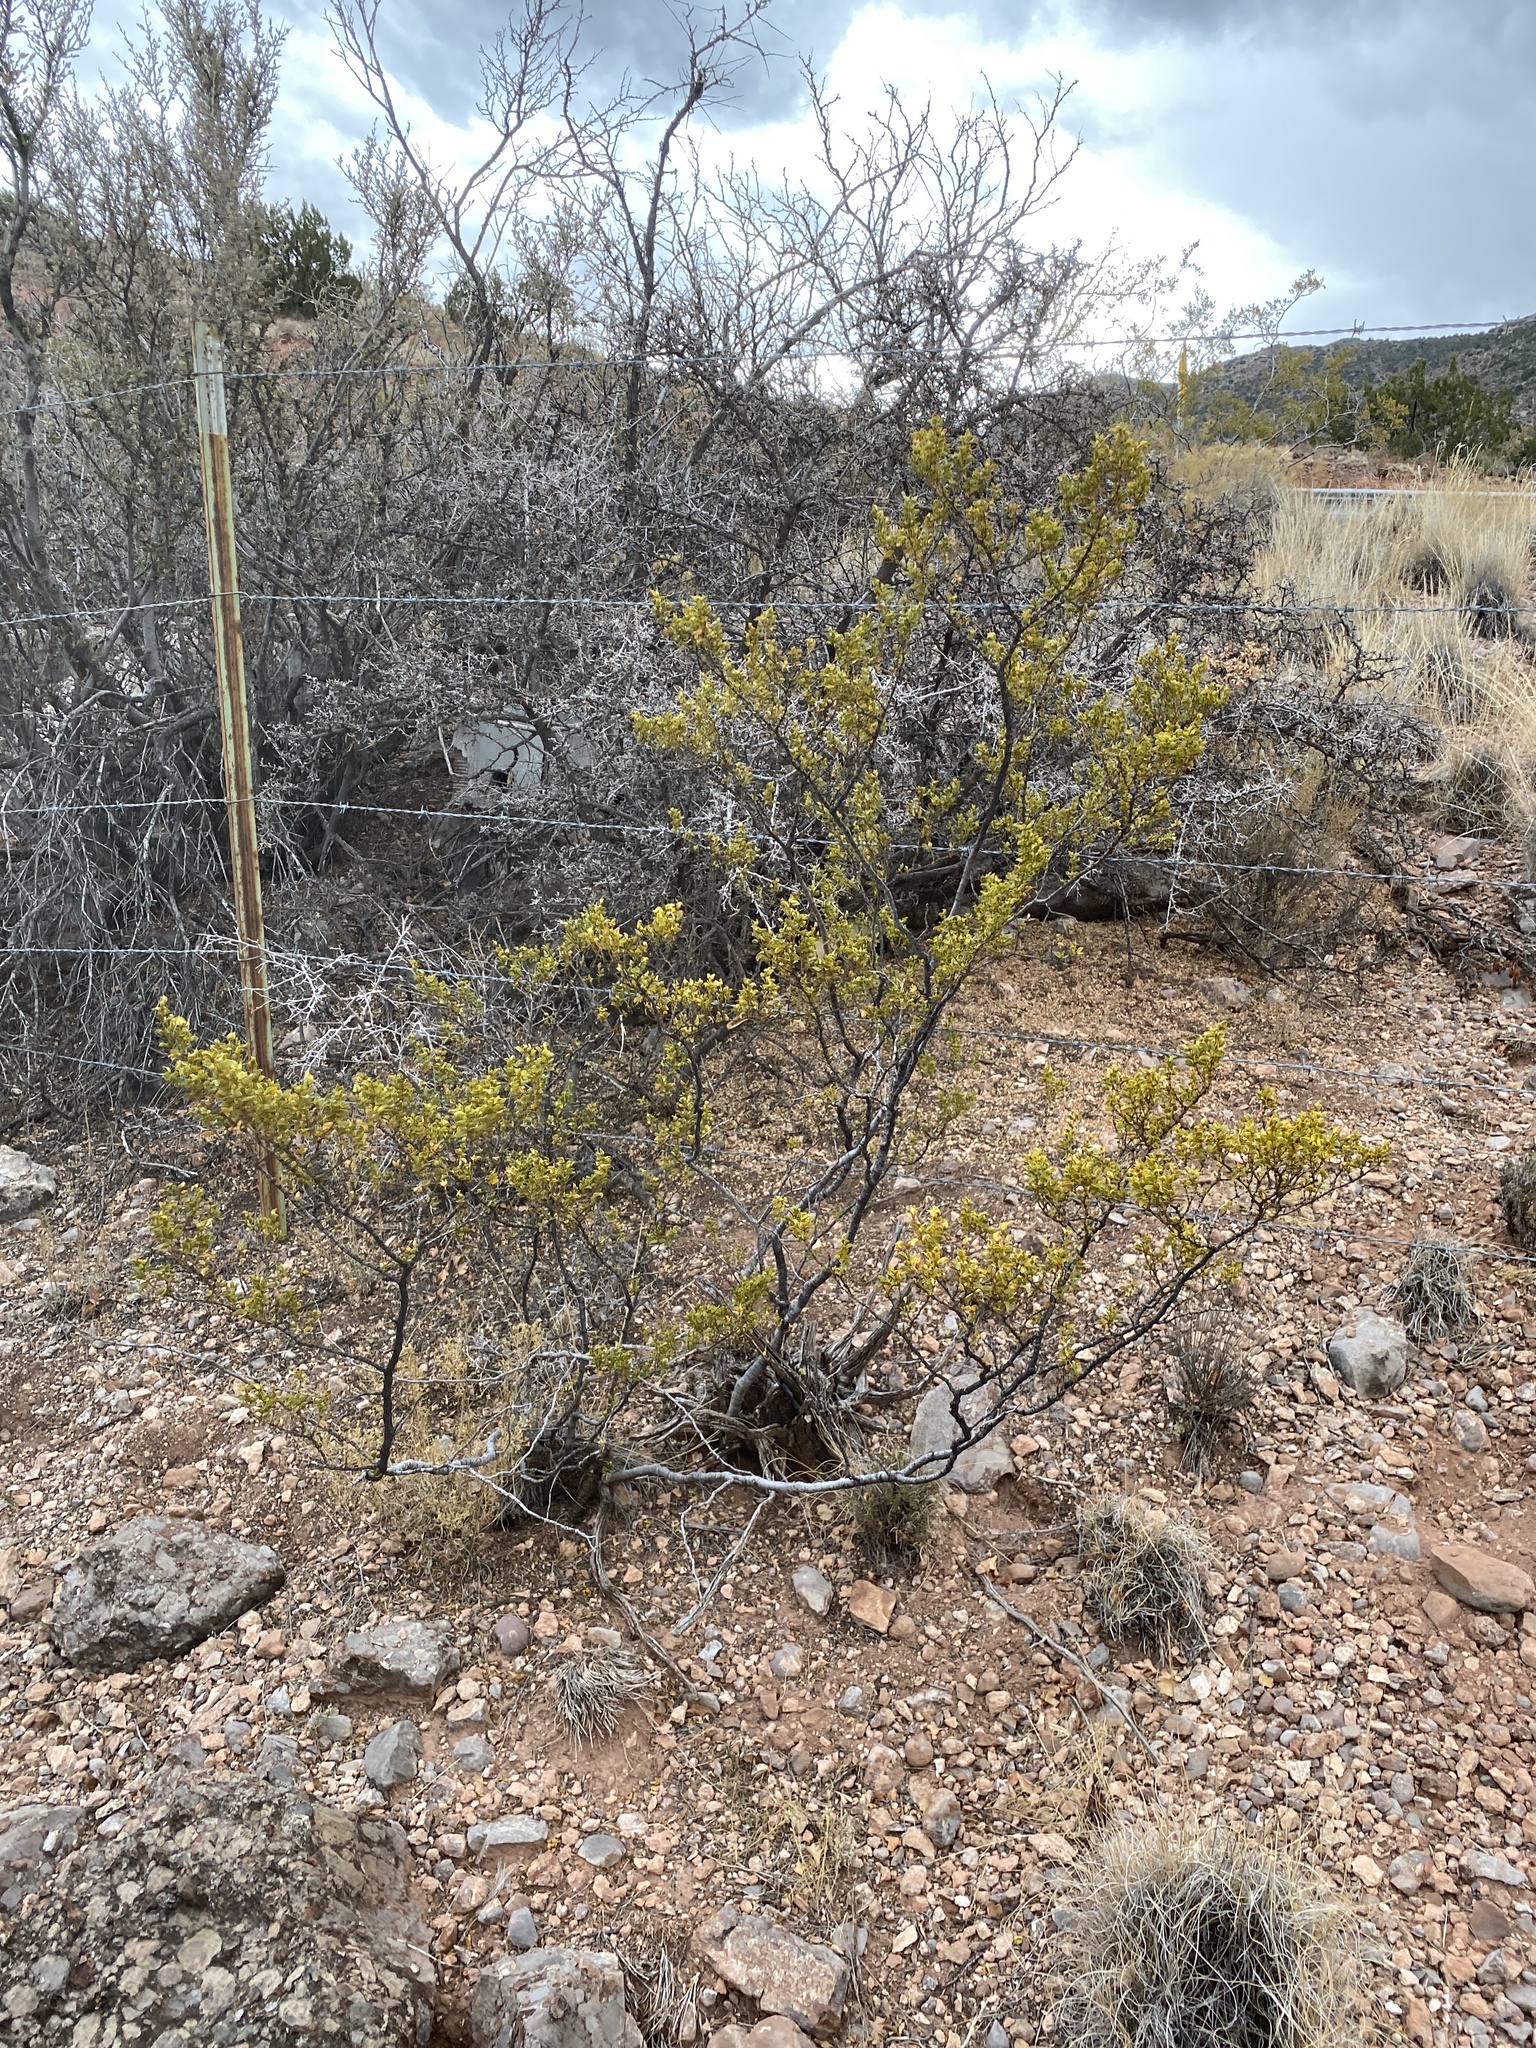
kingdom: Plantae
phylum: Tracheophyta
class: Magnoliopsida
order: Zygophyllales
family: Zygophyllaceae
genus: Larrea
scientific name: Larrea tridentata
